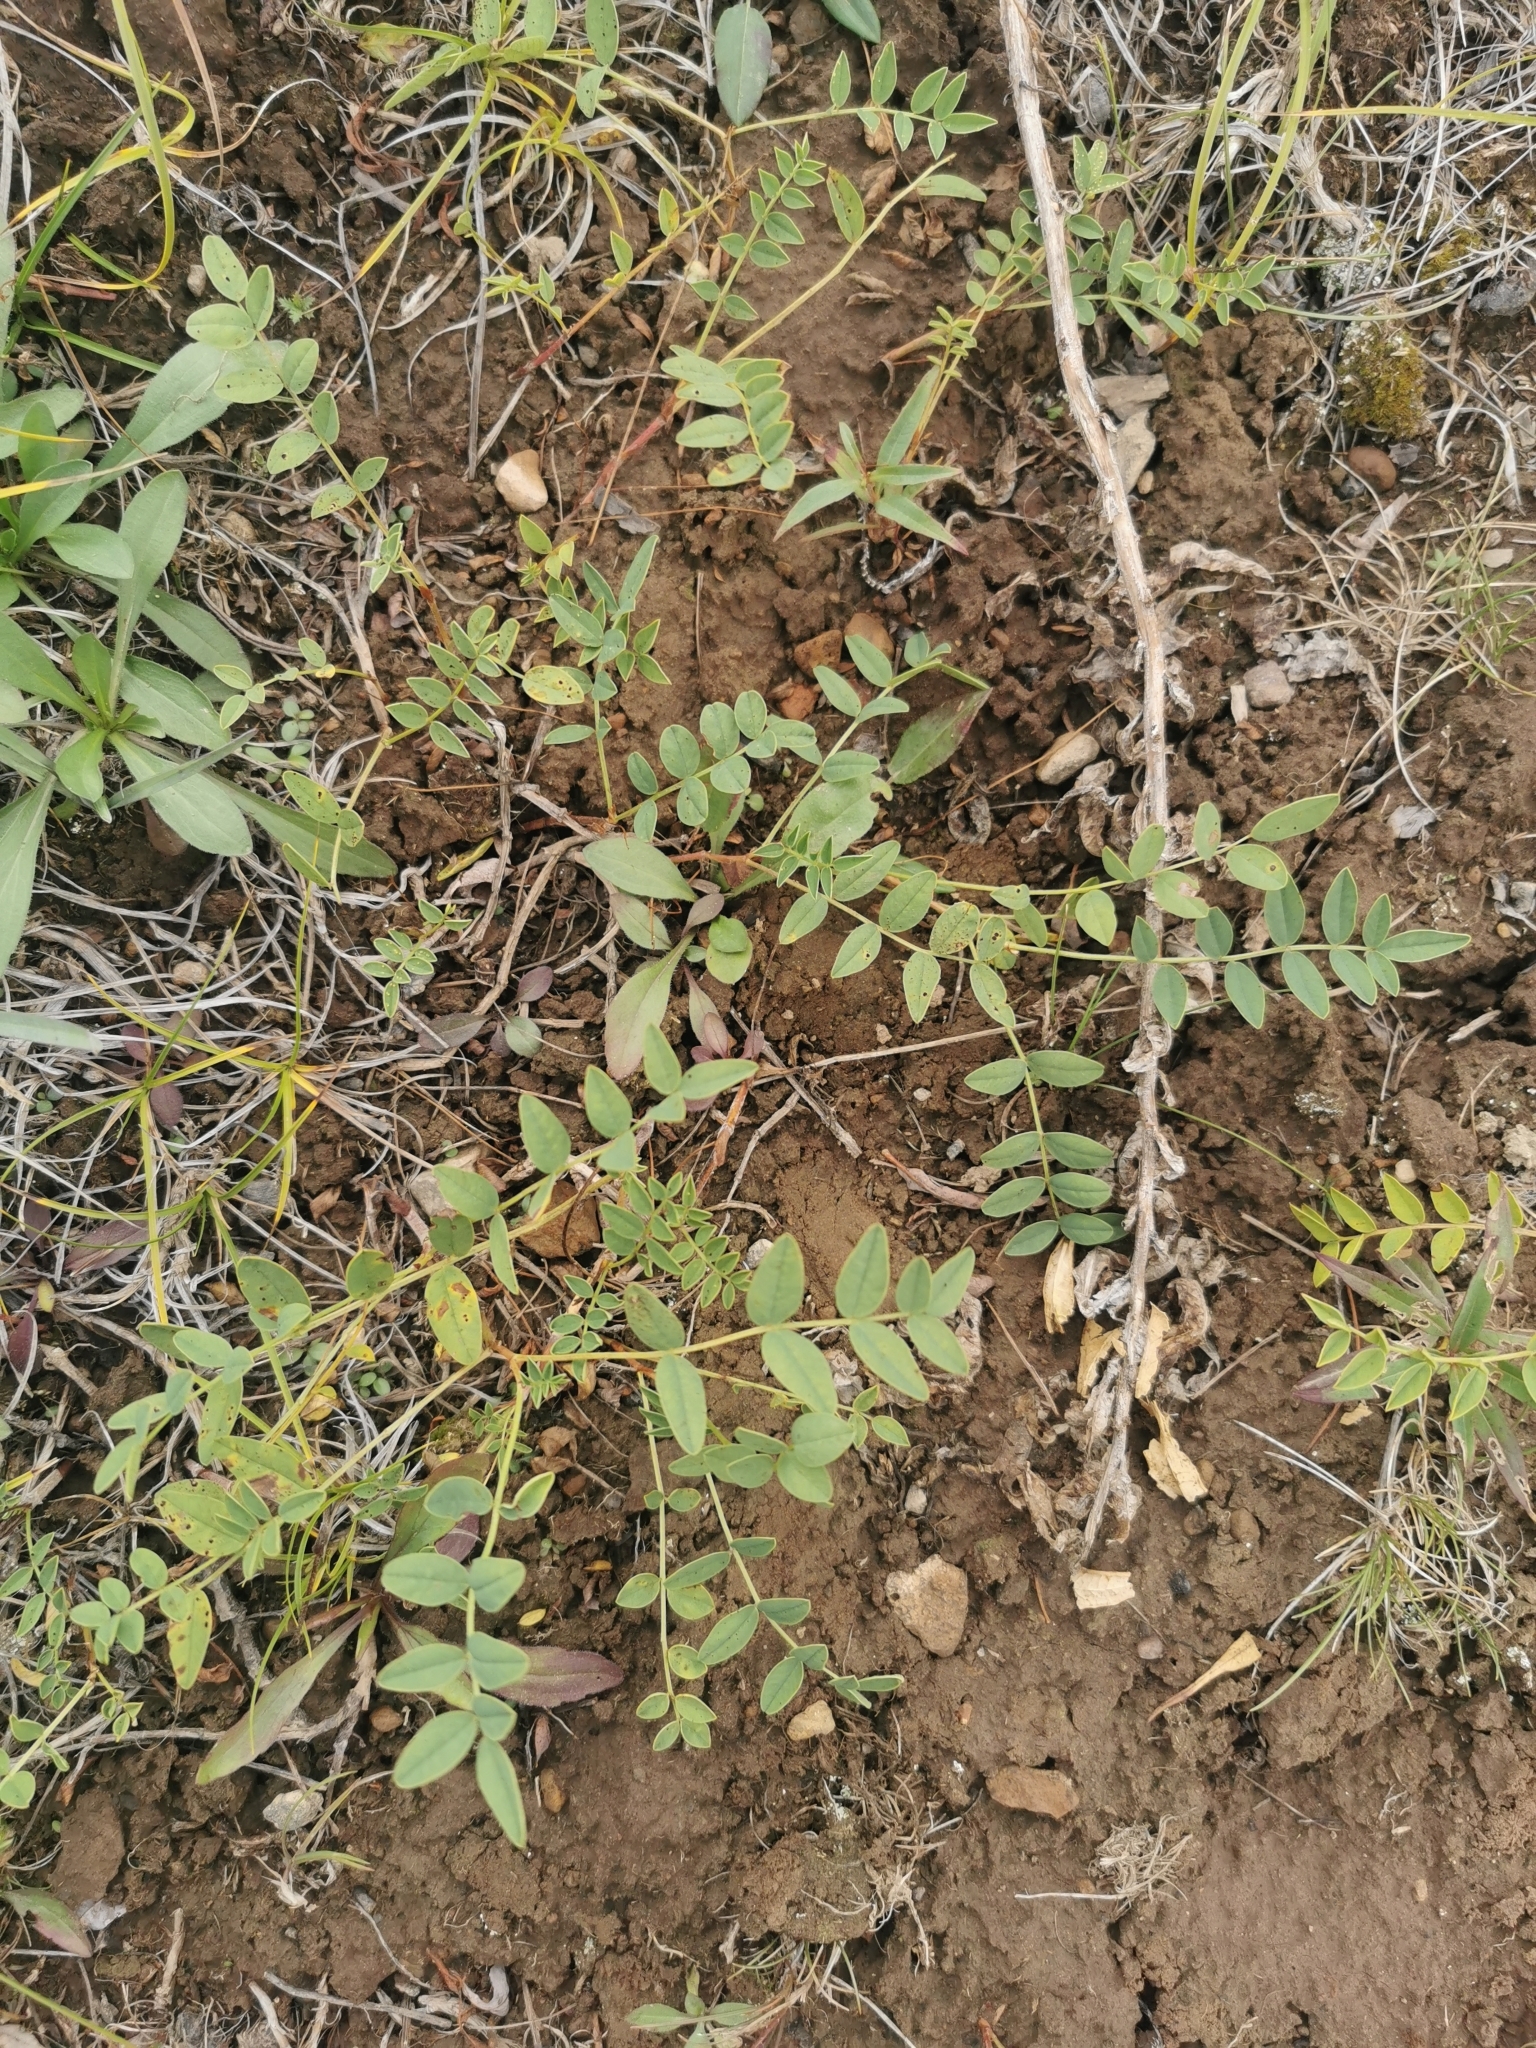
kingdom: Plantae
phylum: Tracheophyta
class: Magnoliopsida
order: Fabales
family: Fabaceae
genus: Astragalus
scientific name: Astragalus alpinus
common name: Alpine milk-vetch
